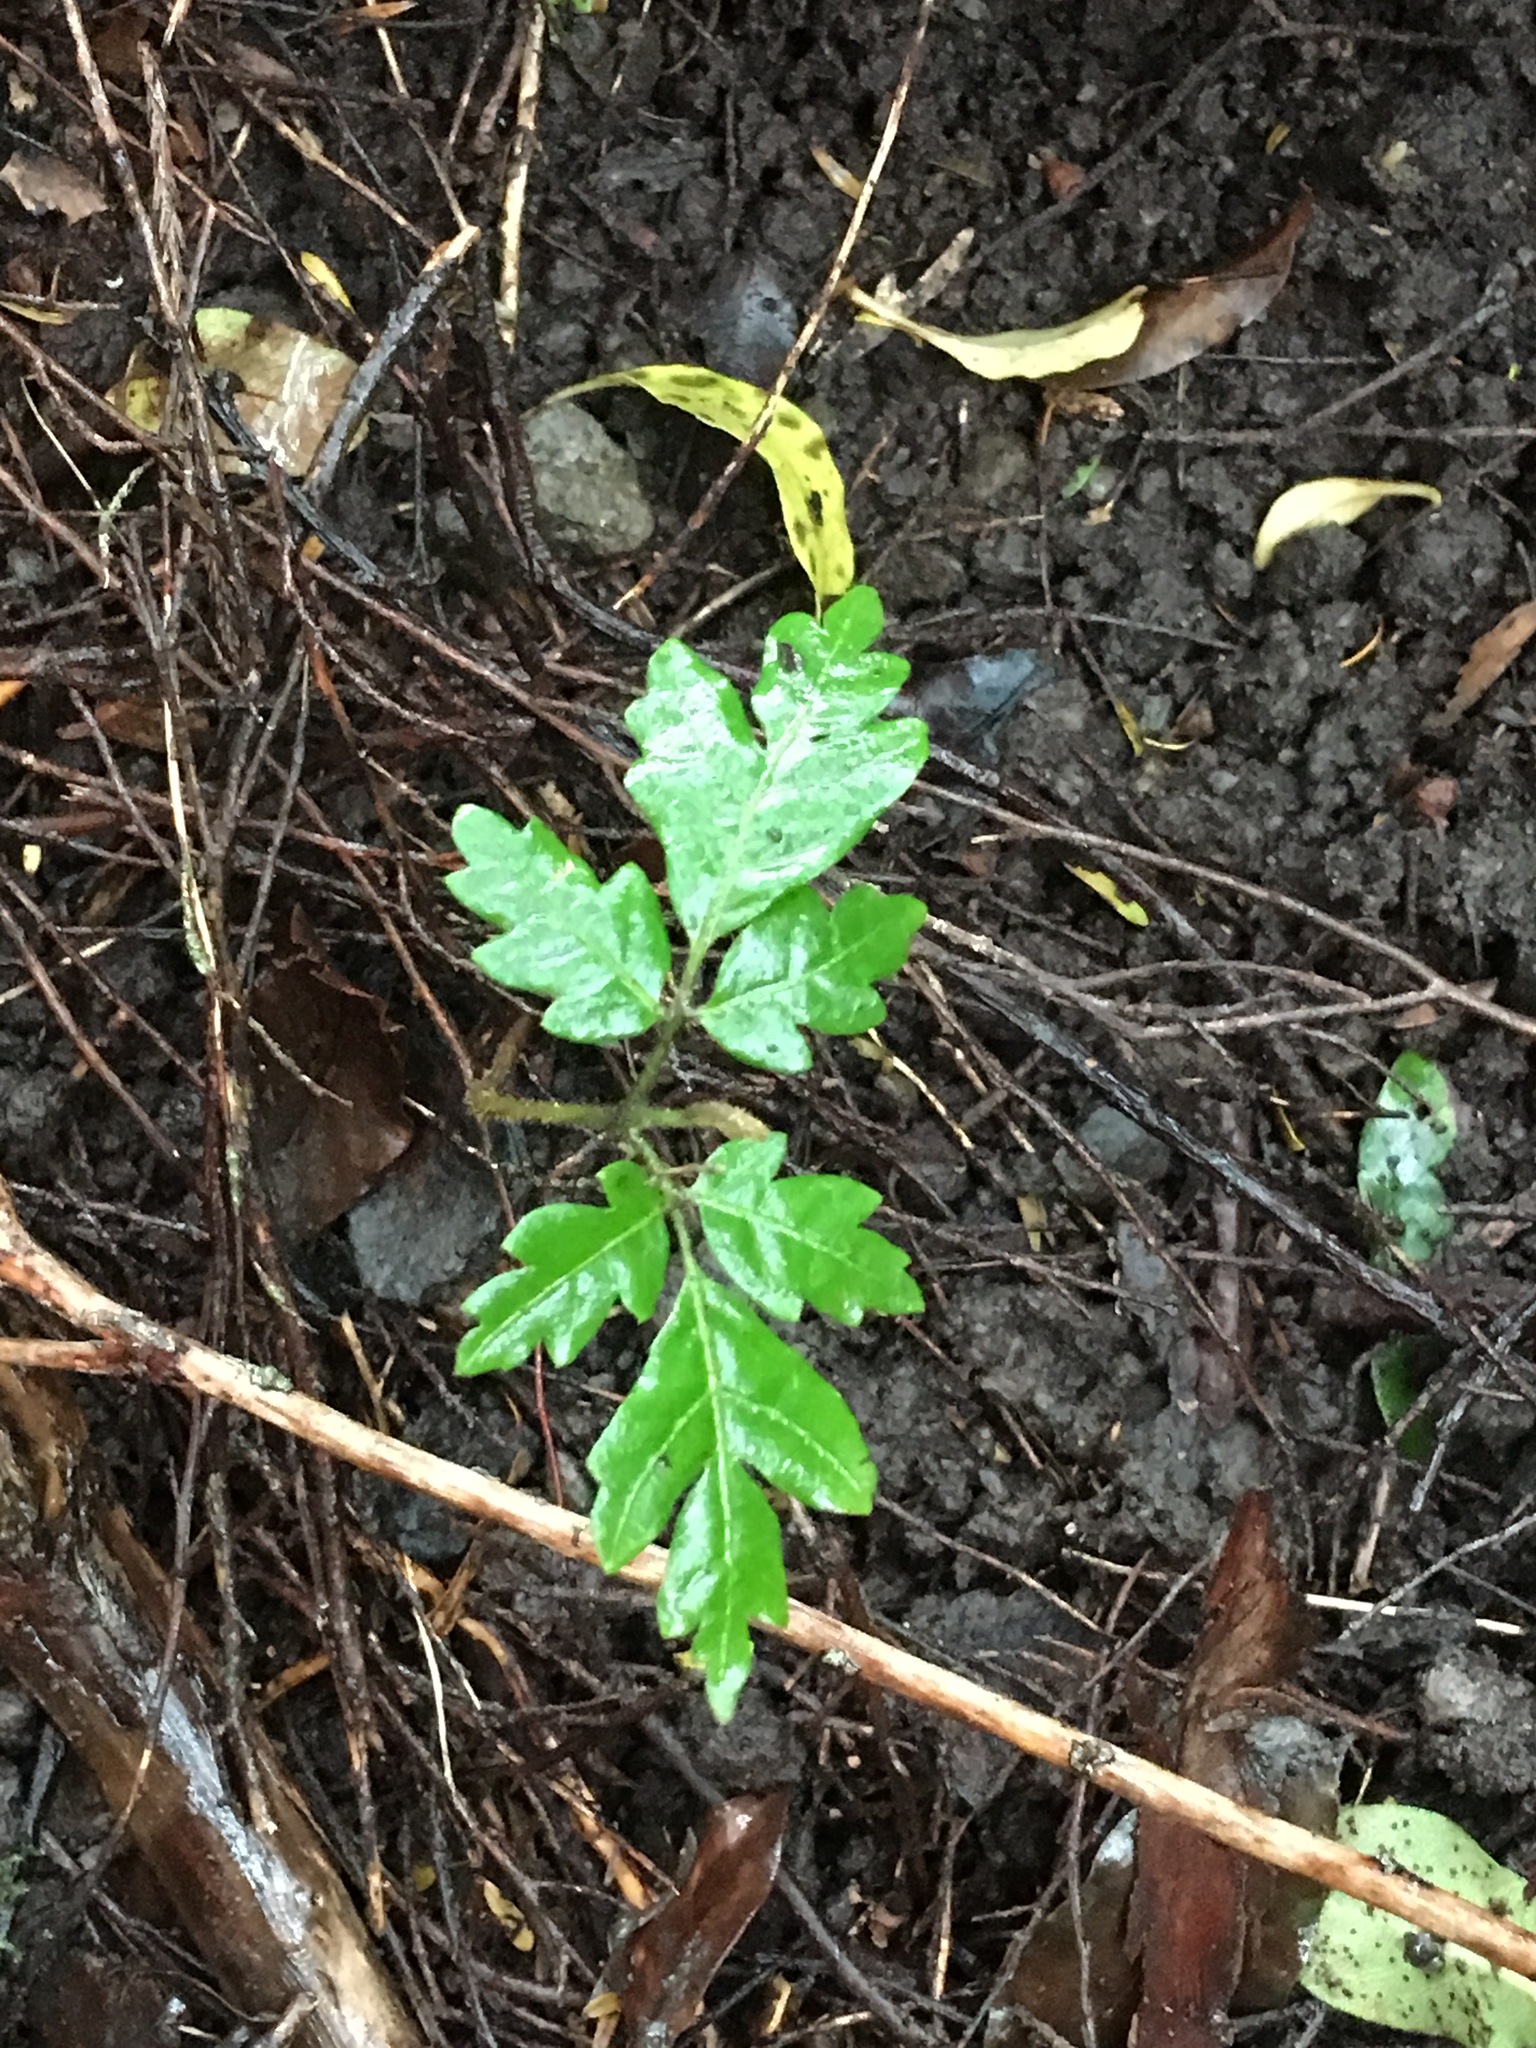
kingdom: Plantae
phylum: Tracheophyta
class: Magnoliopsida
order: Sapindales
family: Sapindaceae
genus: Alectryon
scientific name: Alectryon excelsus
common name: Three kings titoki
